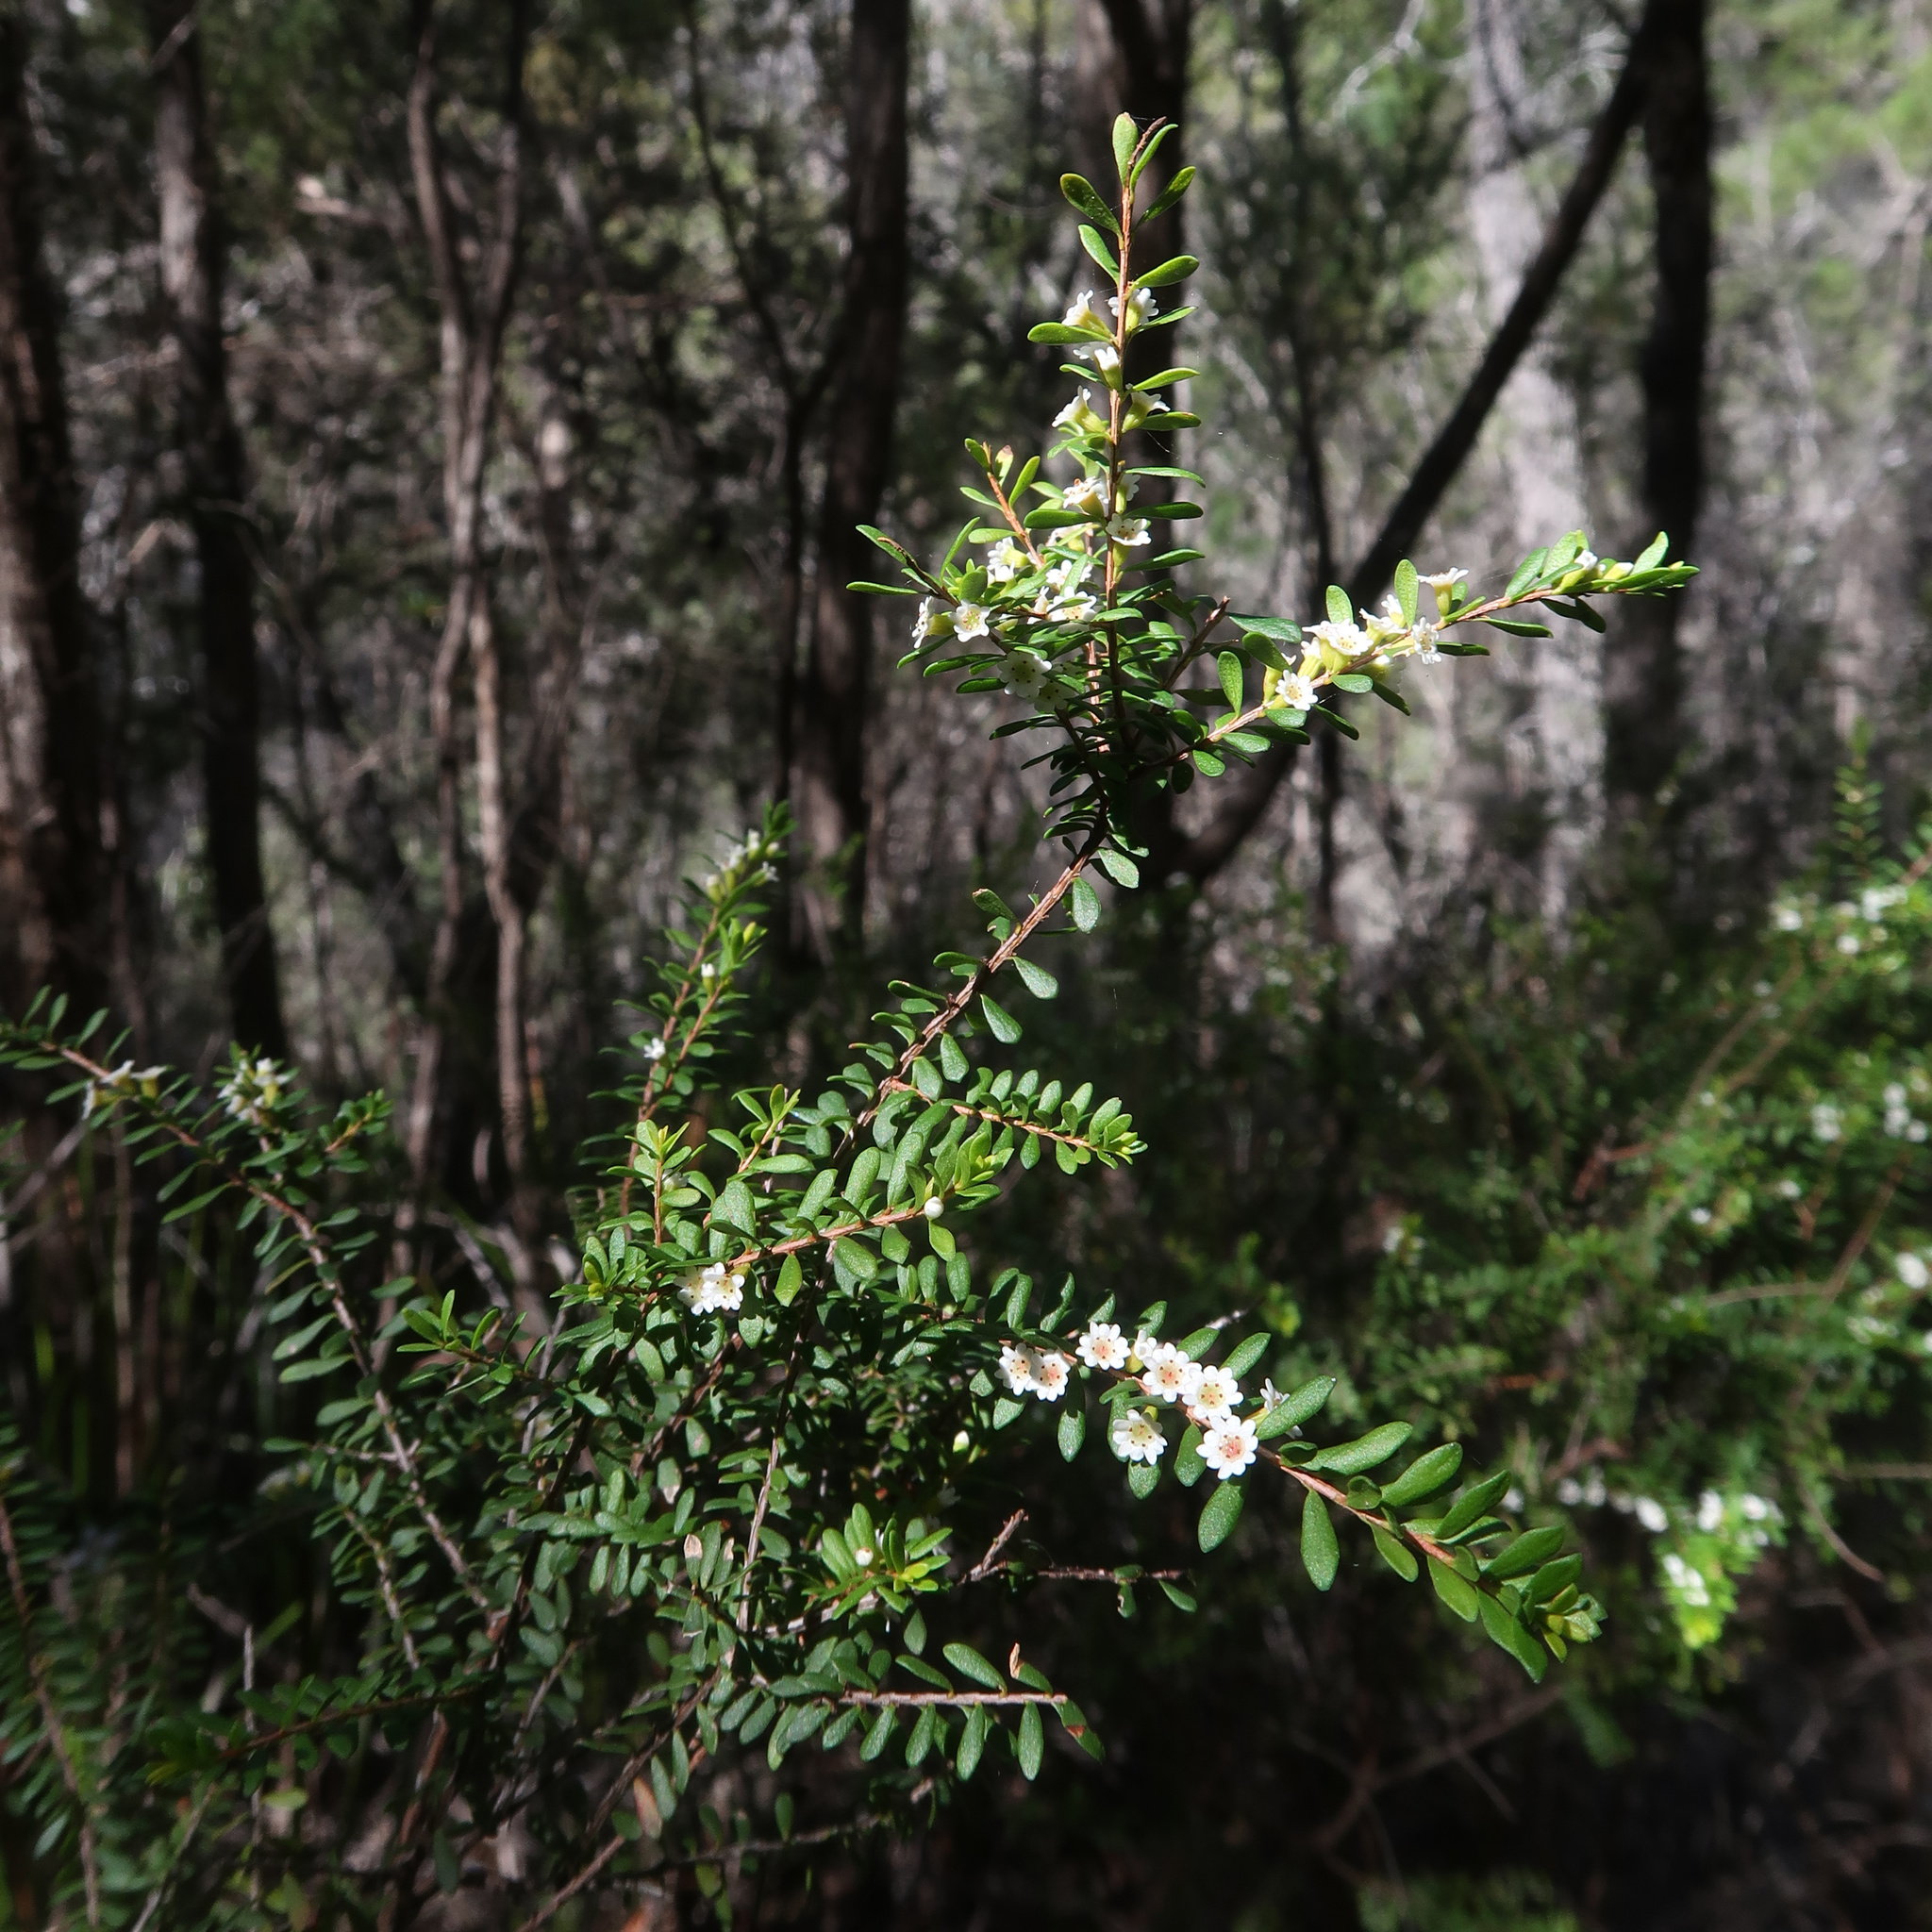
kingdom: Plantae
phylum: Tracheophyta
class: Magnoliopsida
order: Myrtales
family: Myrtaceae
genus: Thryptomene
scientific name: Thryptomene micrantha
